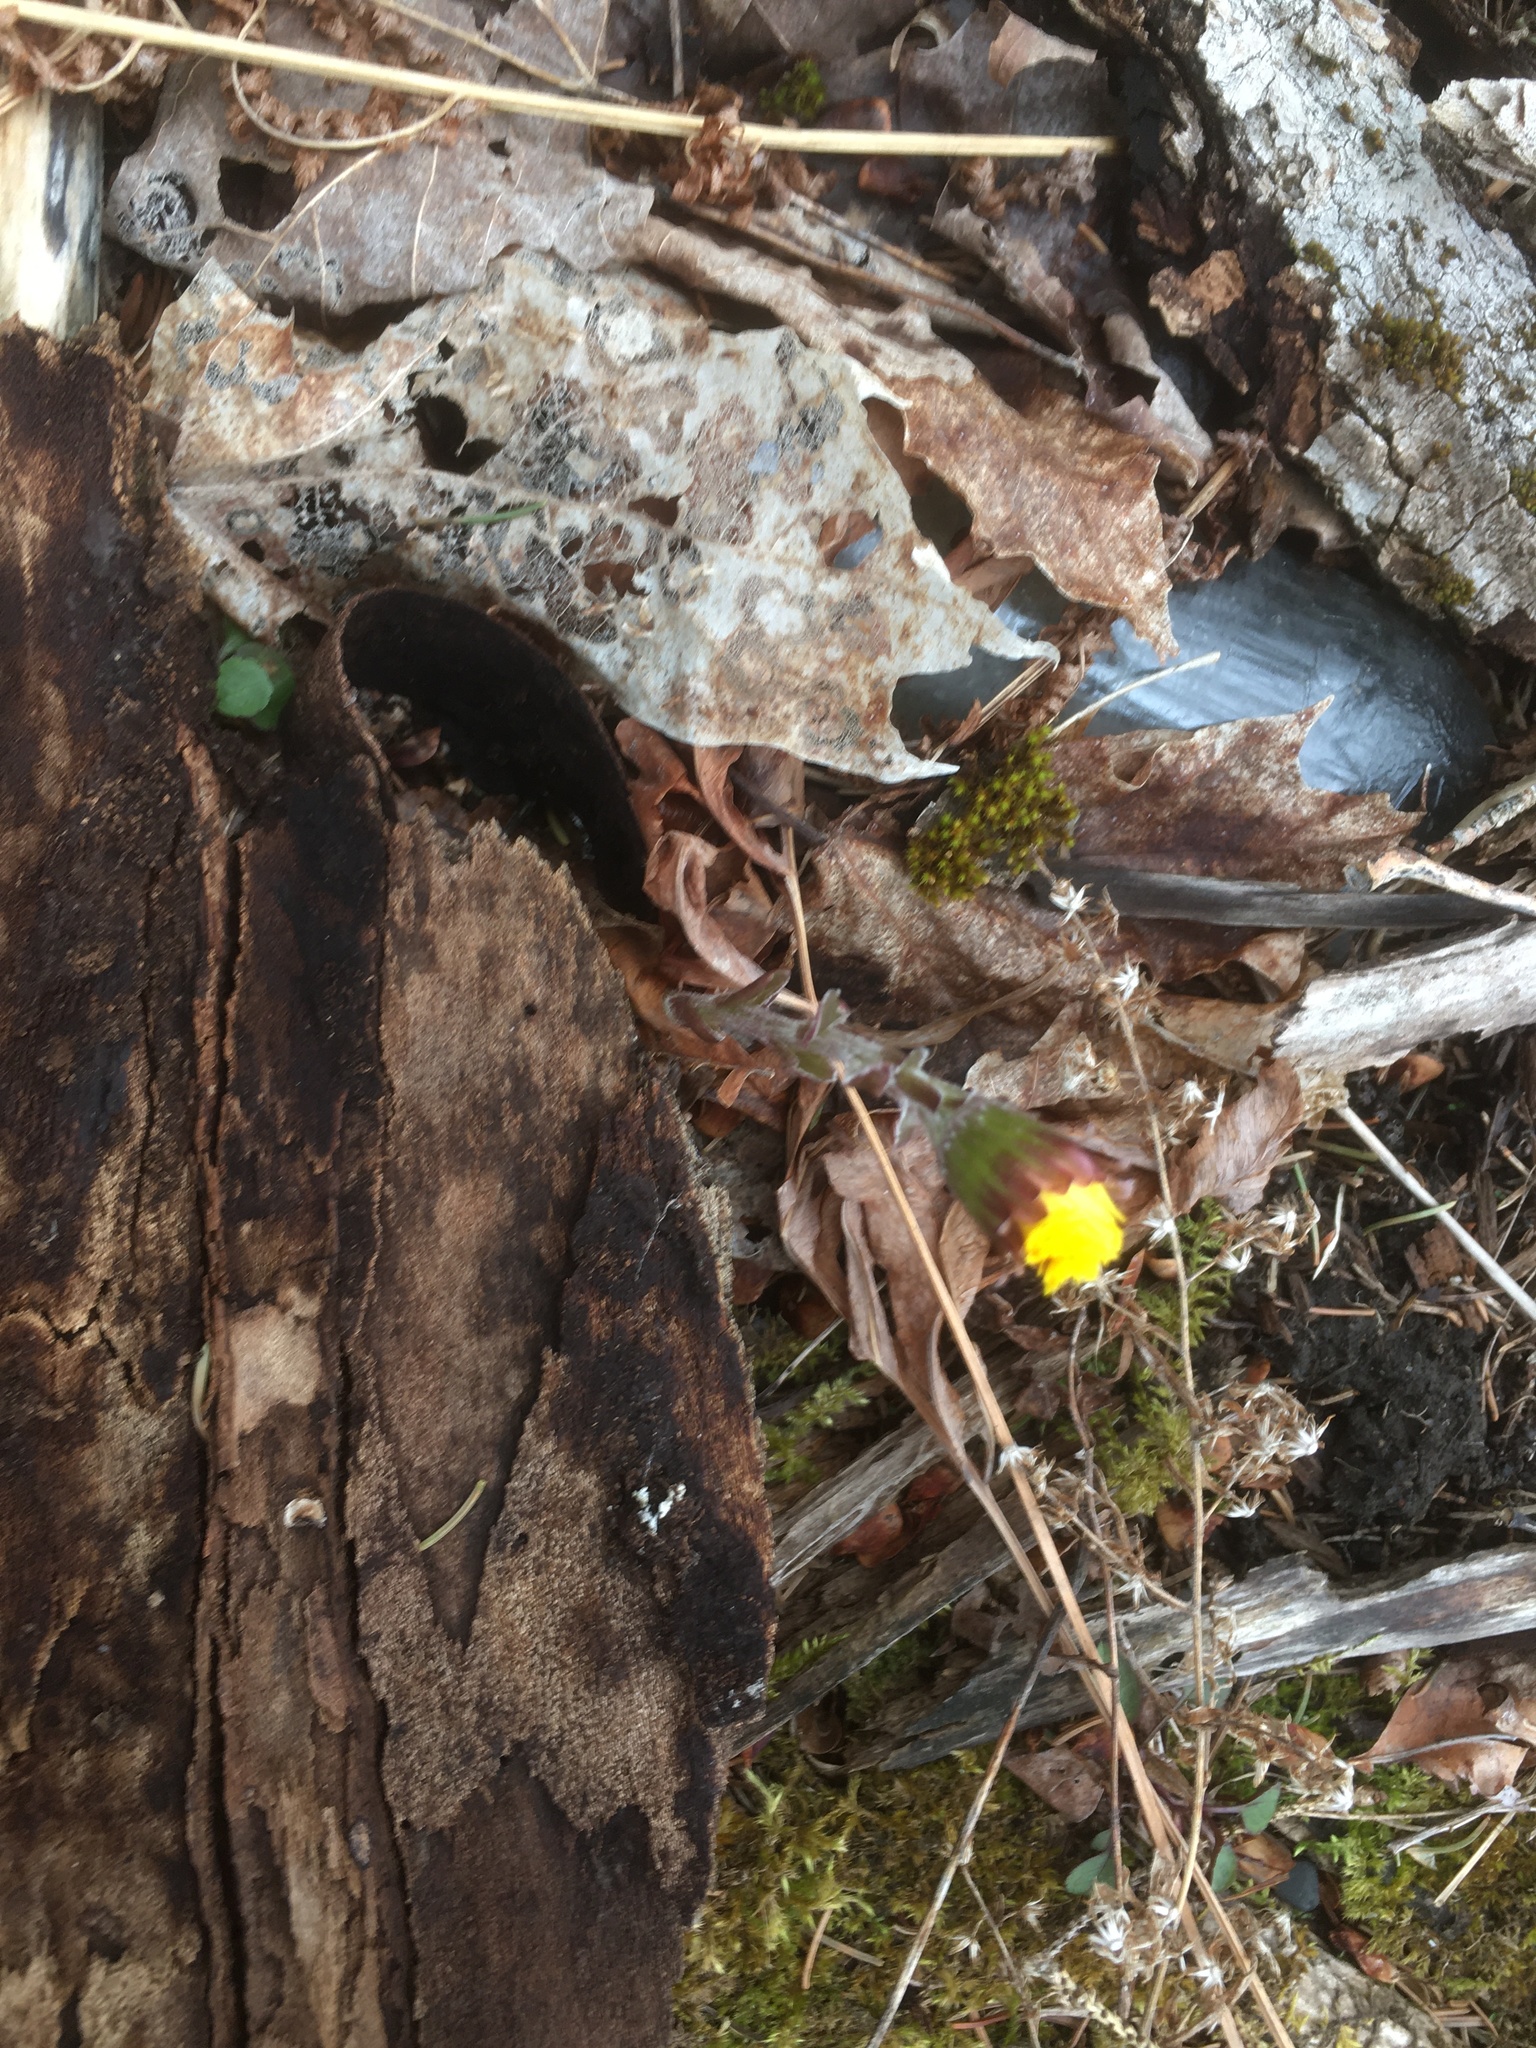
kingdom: Plantae
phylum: Tracheophyta
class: Magnoliopsida
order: Asterales
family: Asteraceae
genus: Tussilago
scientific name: Tussilago farfara
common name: Coltsfoot
